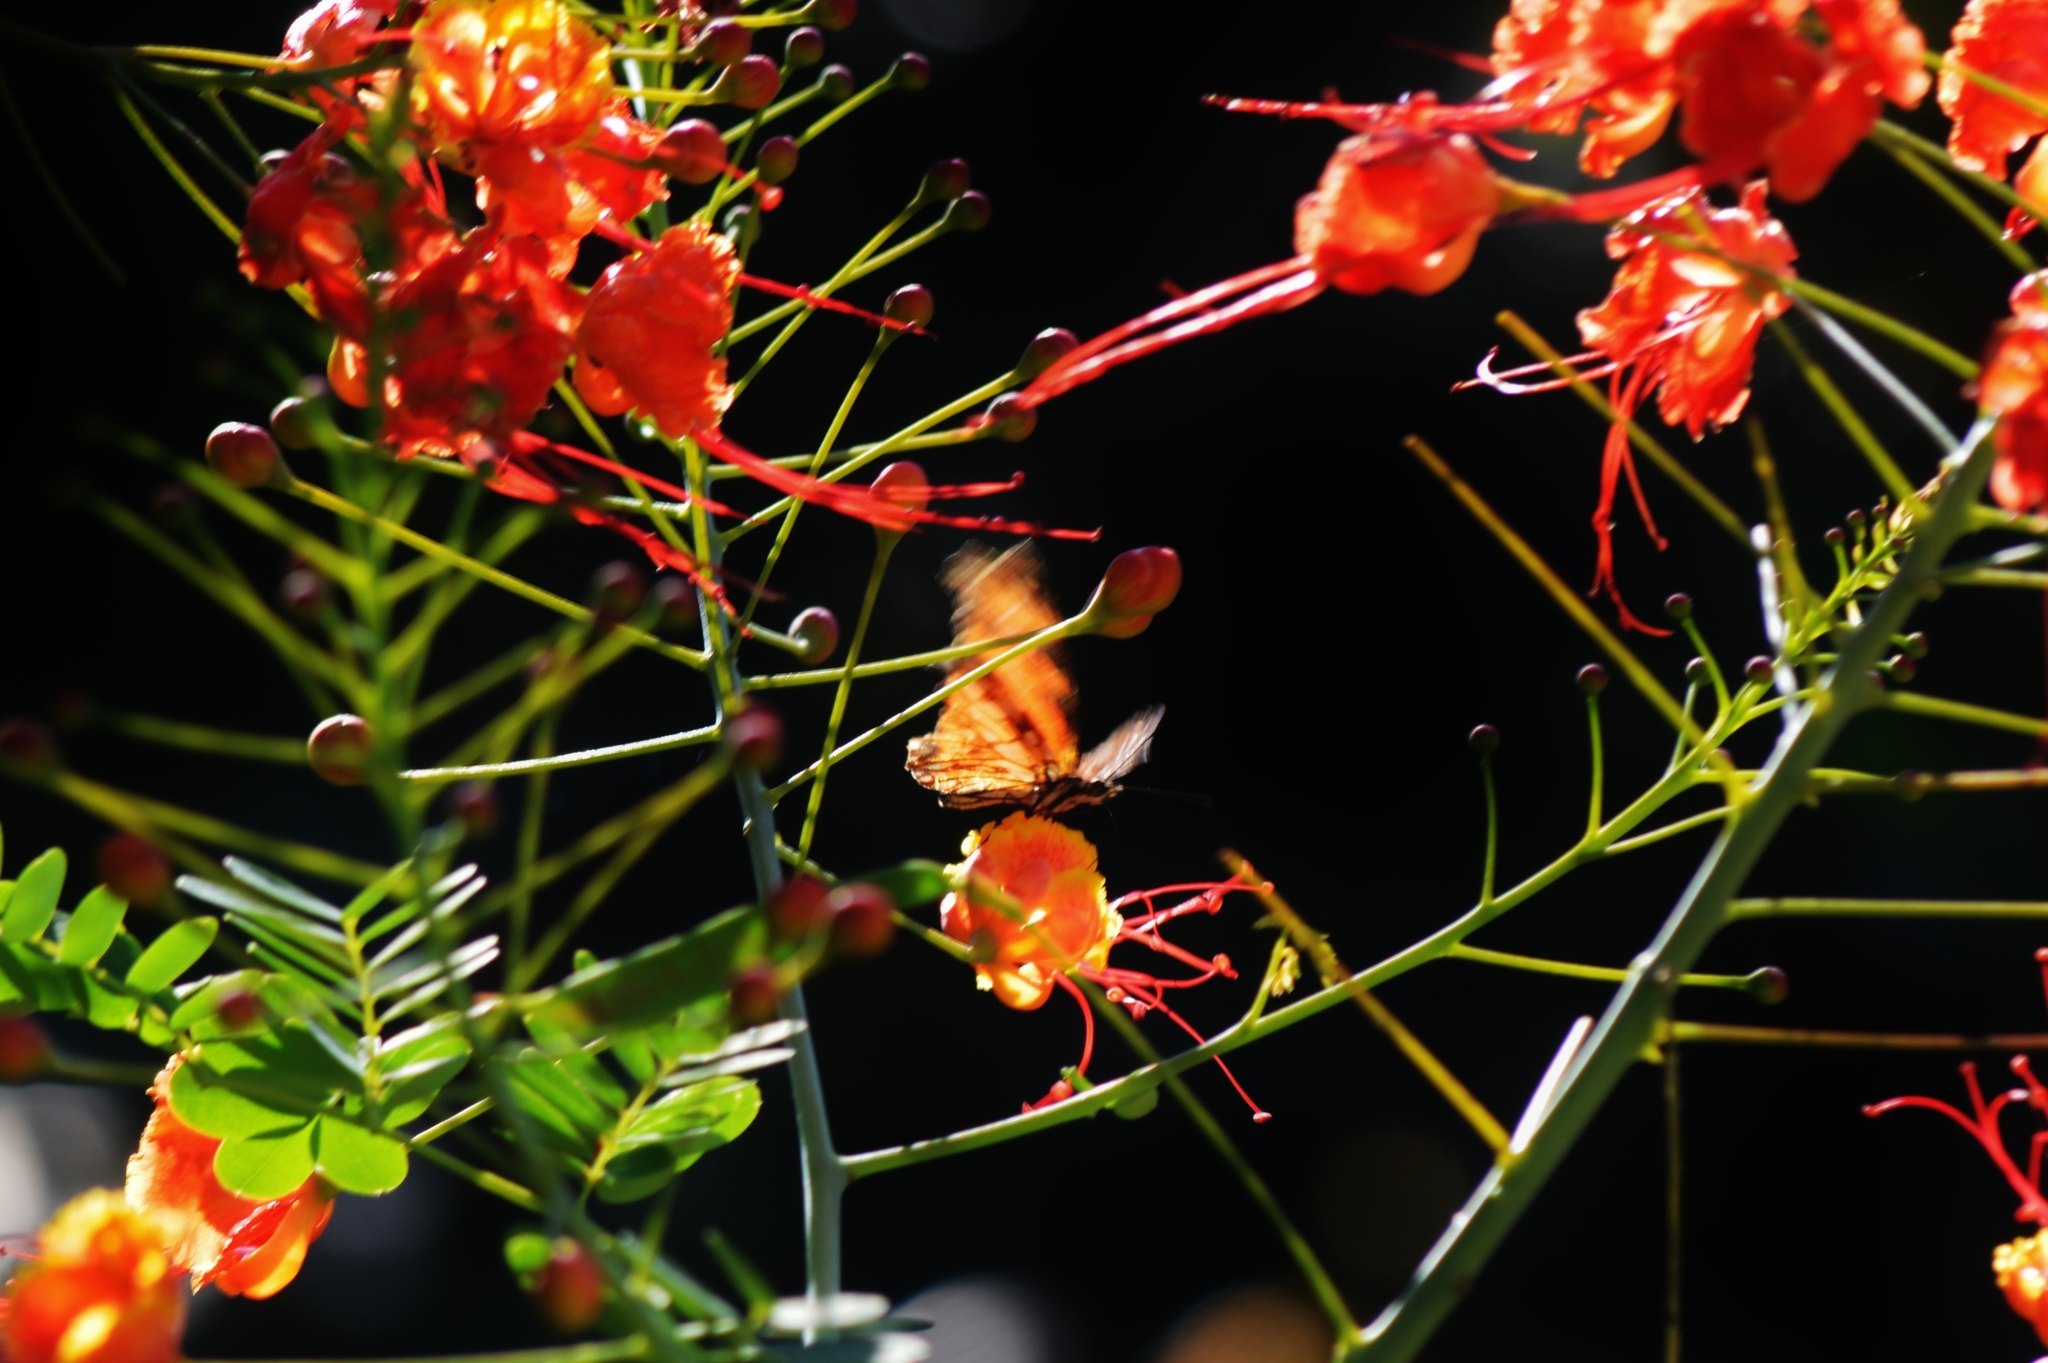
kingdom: Animalia
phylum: Arthropoda
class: Insecta
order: Lepidoptera
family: Nymphalidae
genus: Dione
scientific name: Dione juno
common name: Juno silverspot
